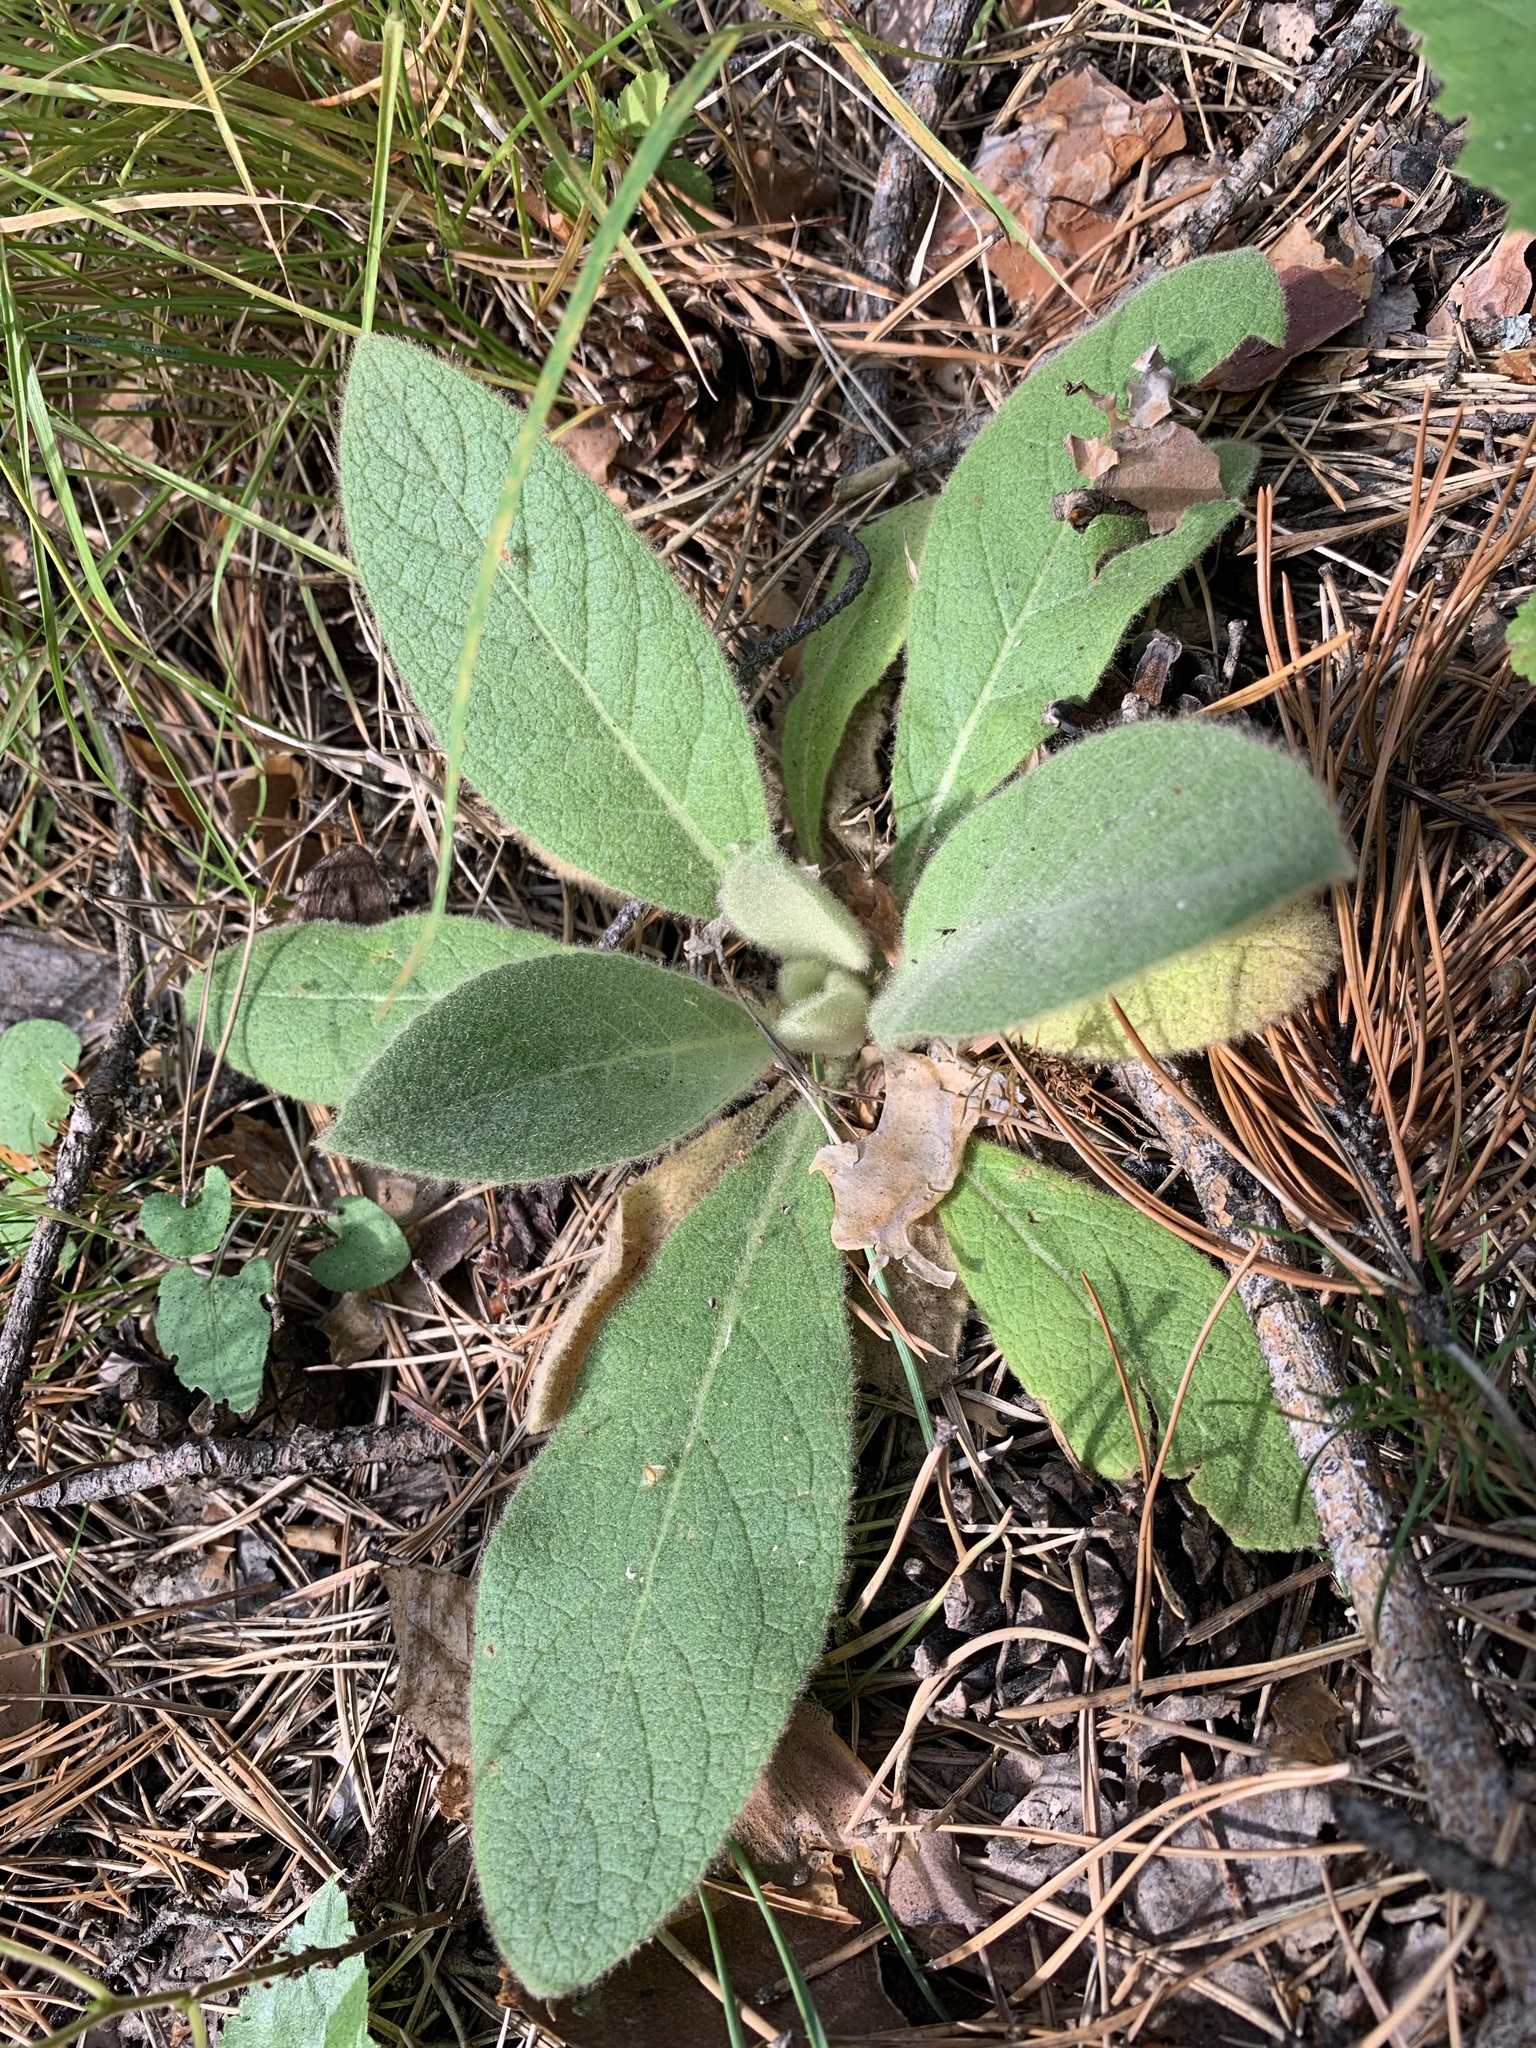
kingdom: Plantae
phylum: Tracheophyta
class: Magnoliopsida
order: Lamiales
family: Scrophulariaceae
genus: Verbascum
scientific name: Verbascum thapsus
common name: Common mullein
